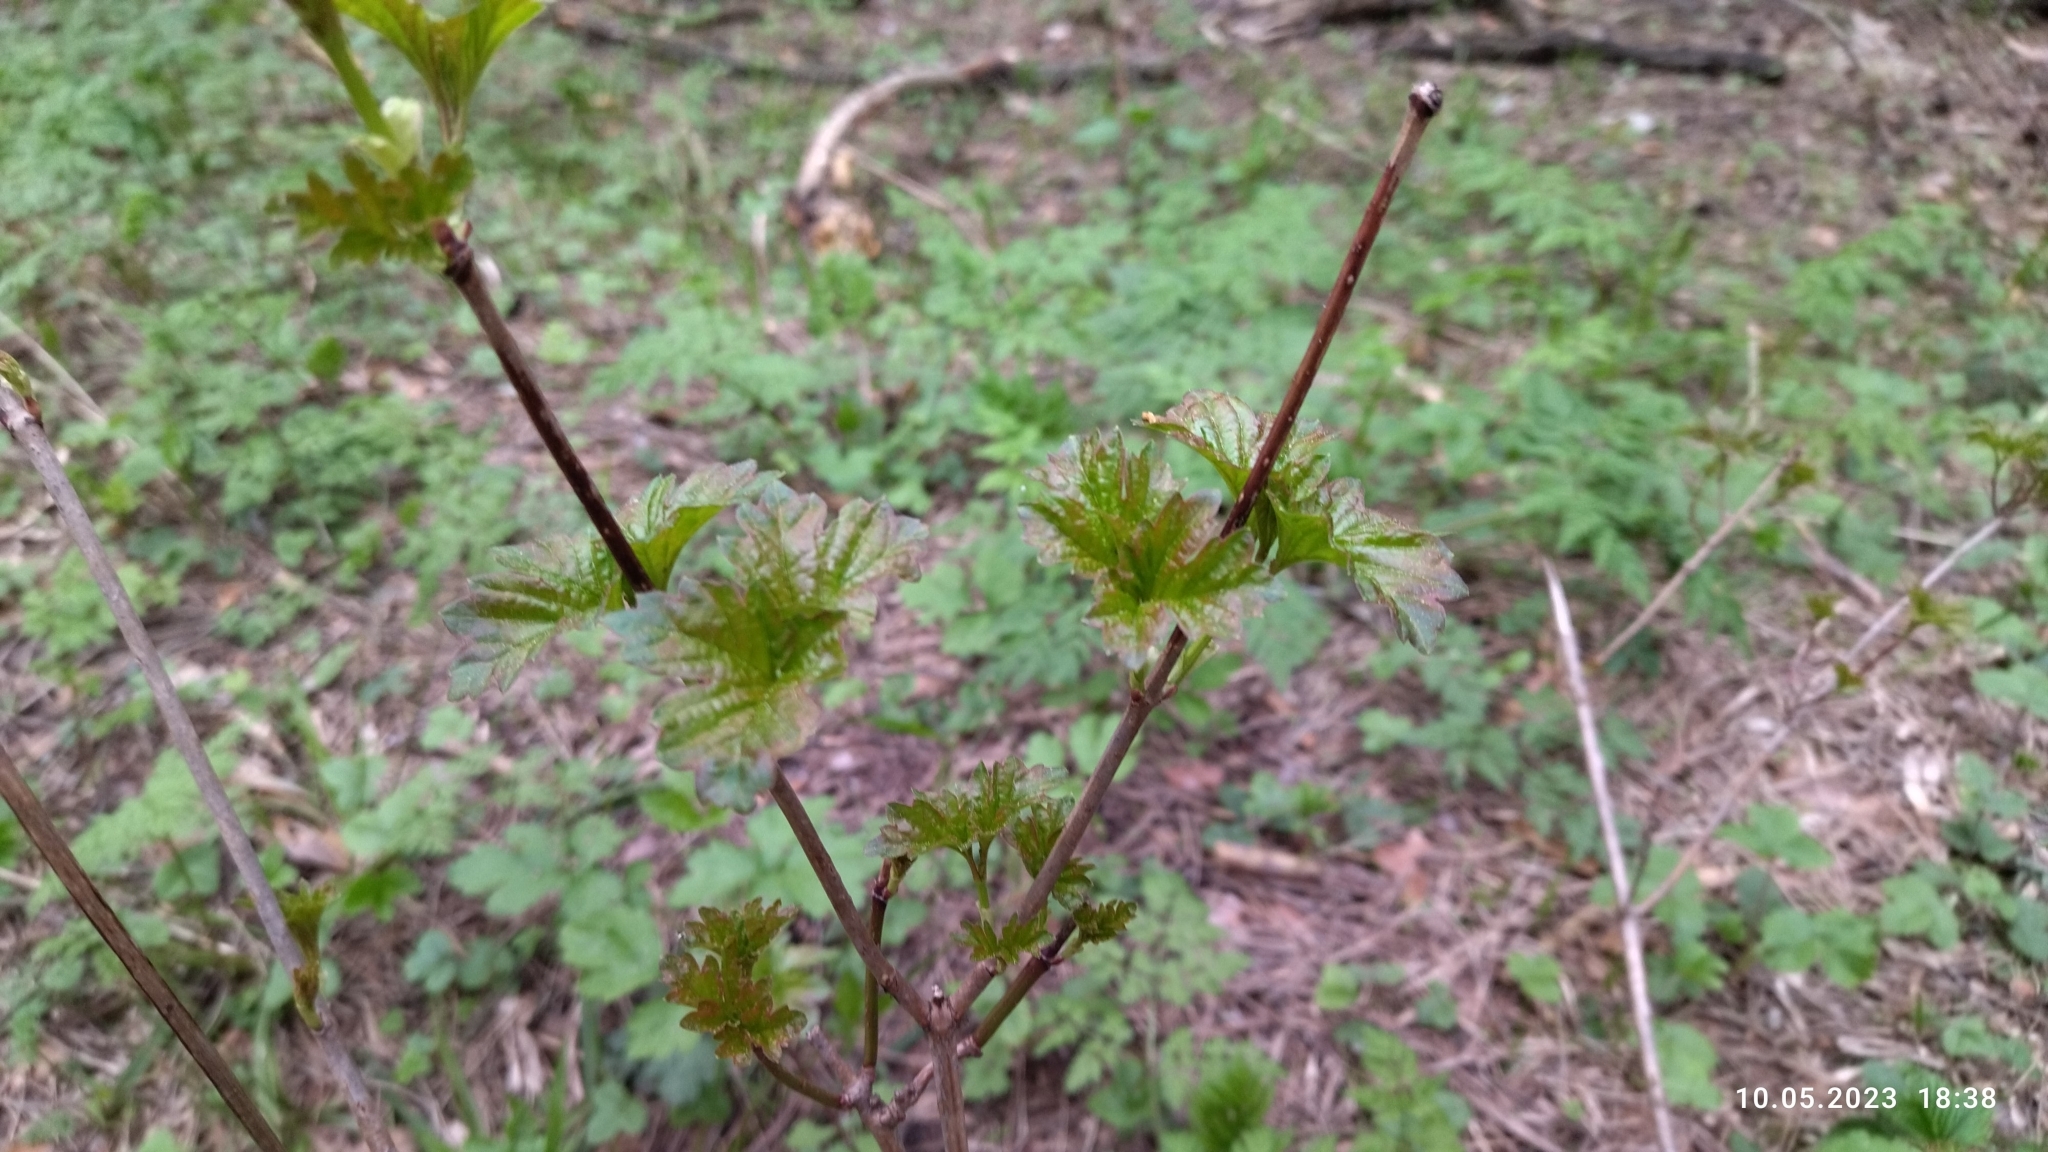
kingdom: Plantae
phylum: Tracheophyta
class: Magnoliopsida
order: Dipsacales
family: Viburnaceae
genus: Viburnum
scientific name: Viburnum opulus
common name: Guelder-rose
